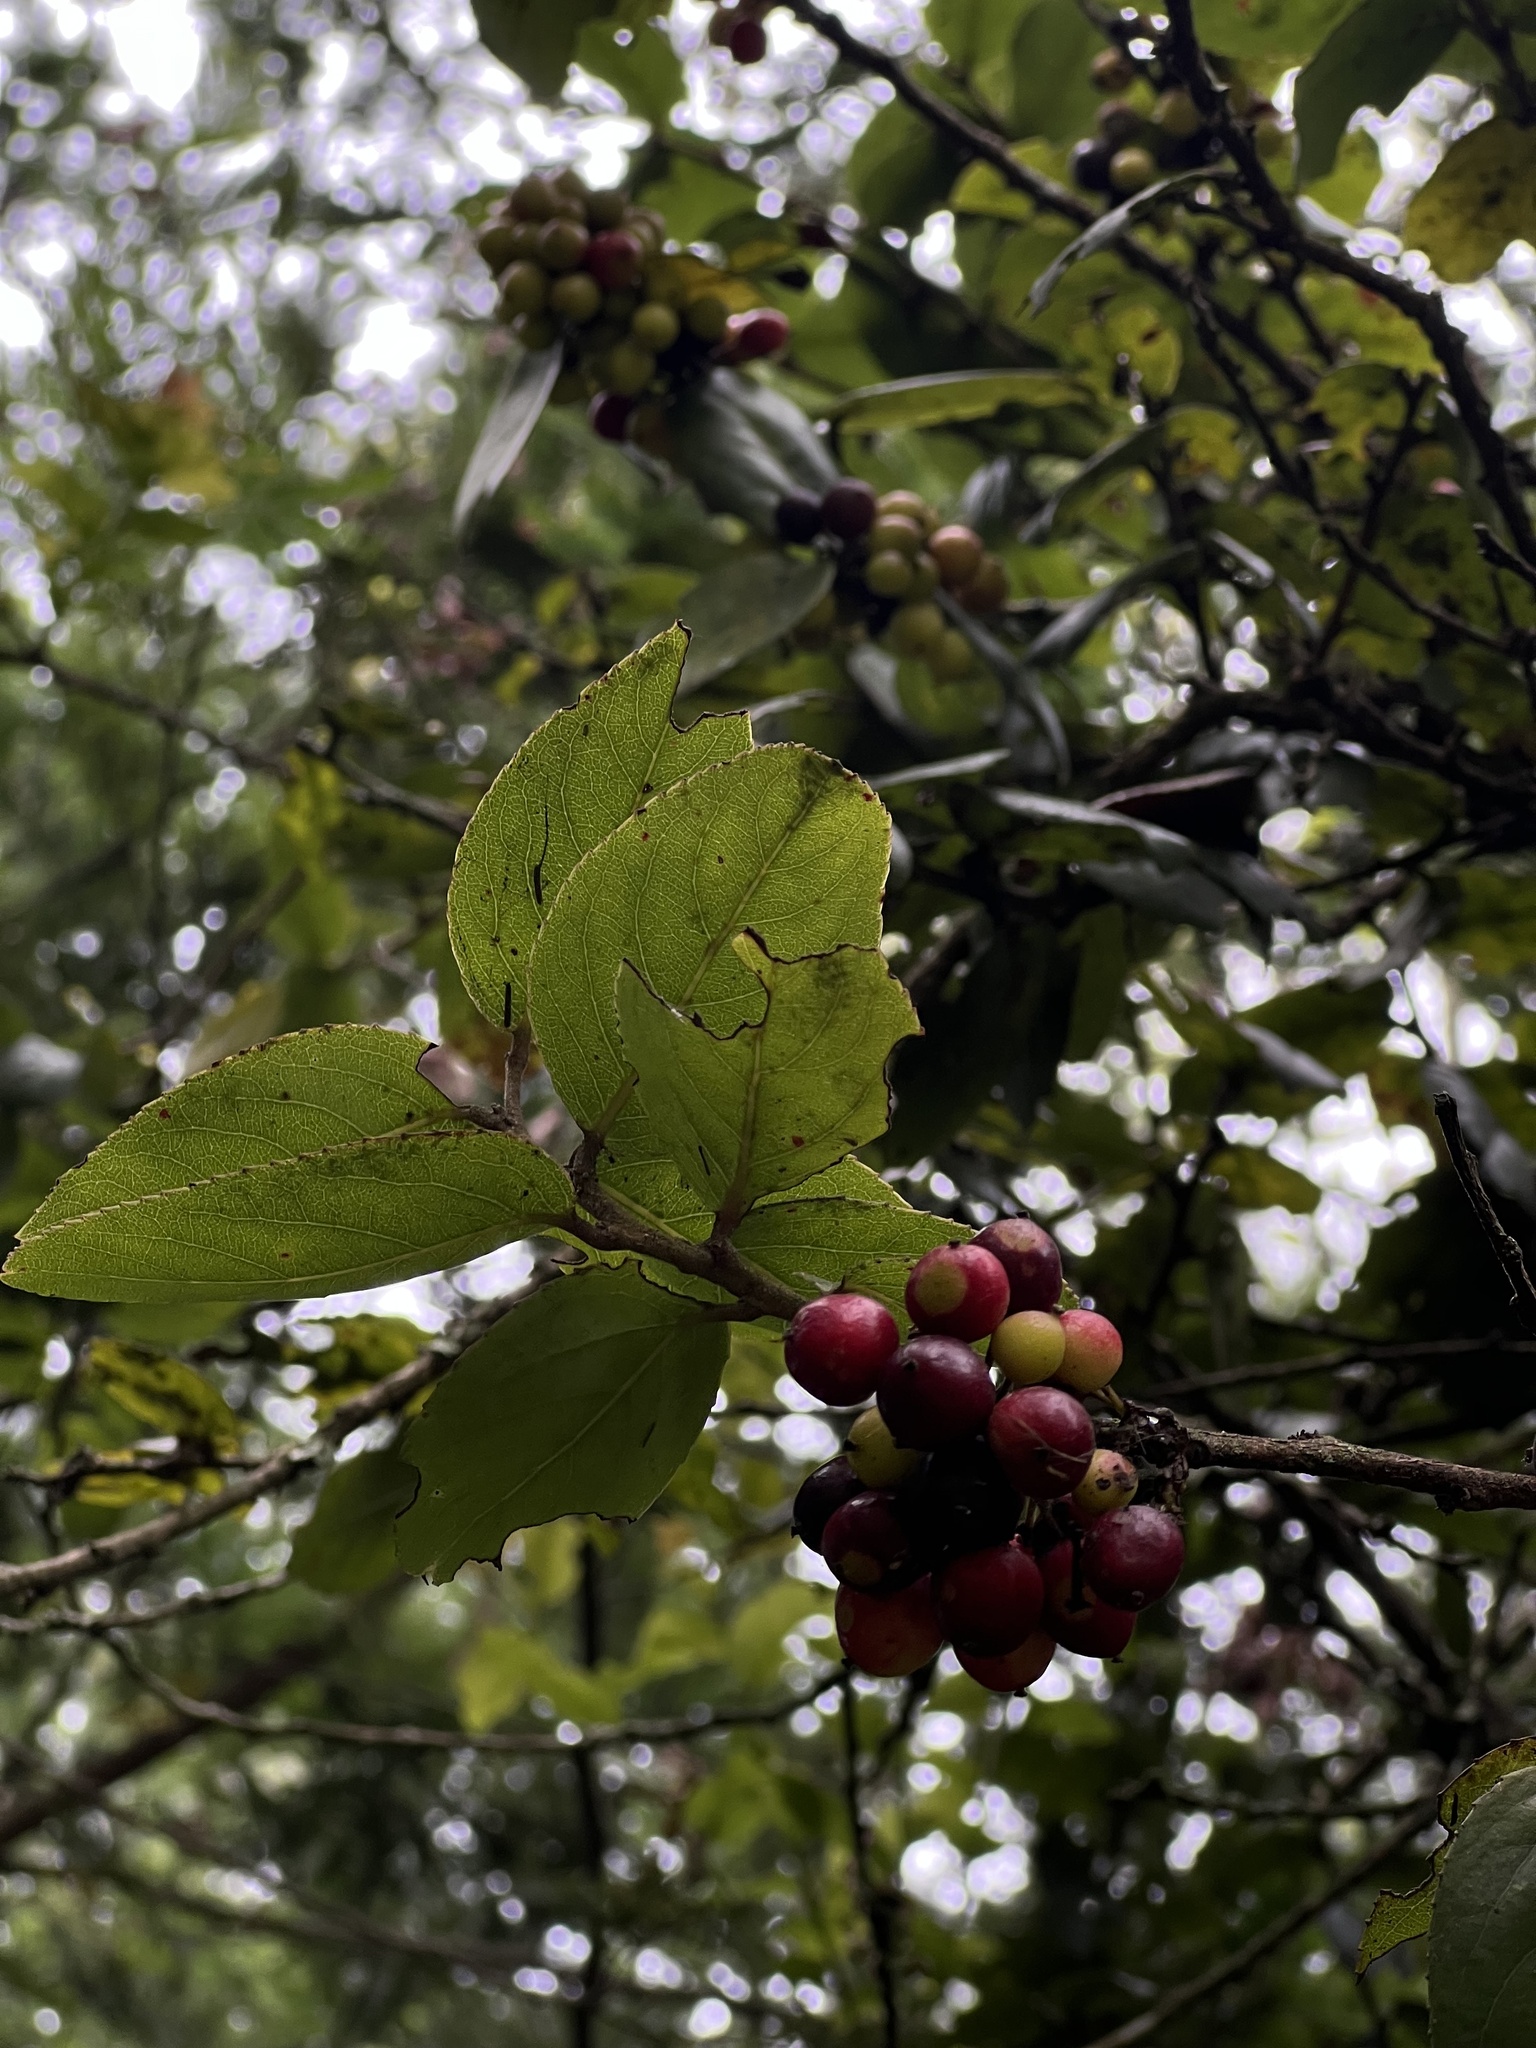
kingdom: Plantae
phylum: Tracheophyta
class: Magnoliopsida
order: Malpighiales
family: Salicaceae
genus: Xylosma
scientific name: Xylosma spiculifera
